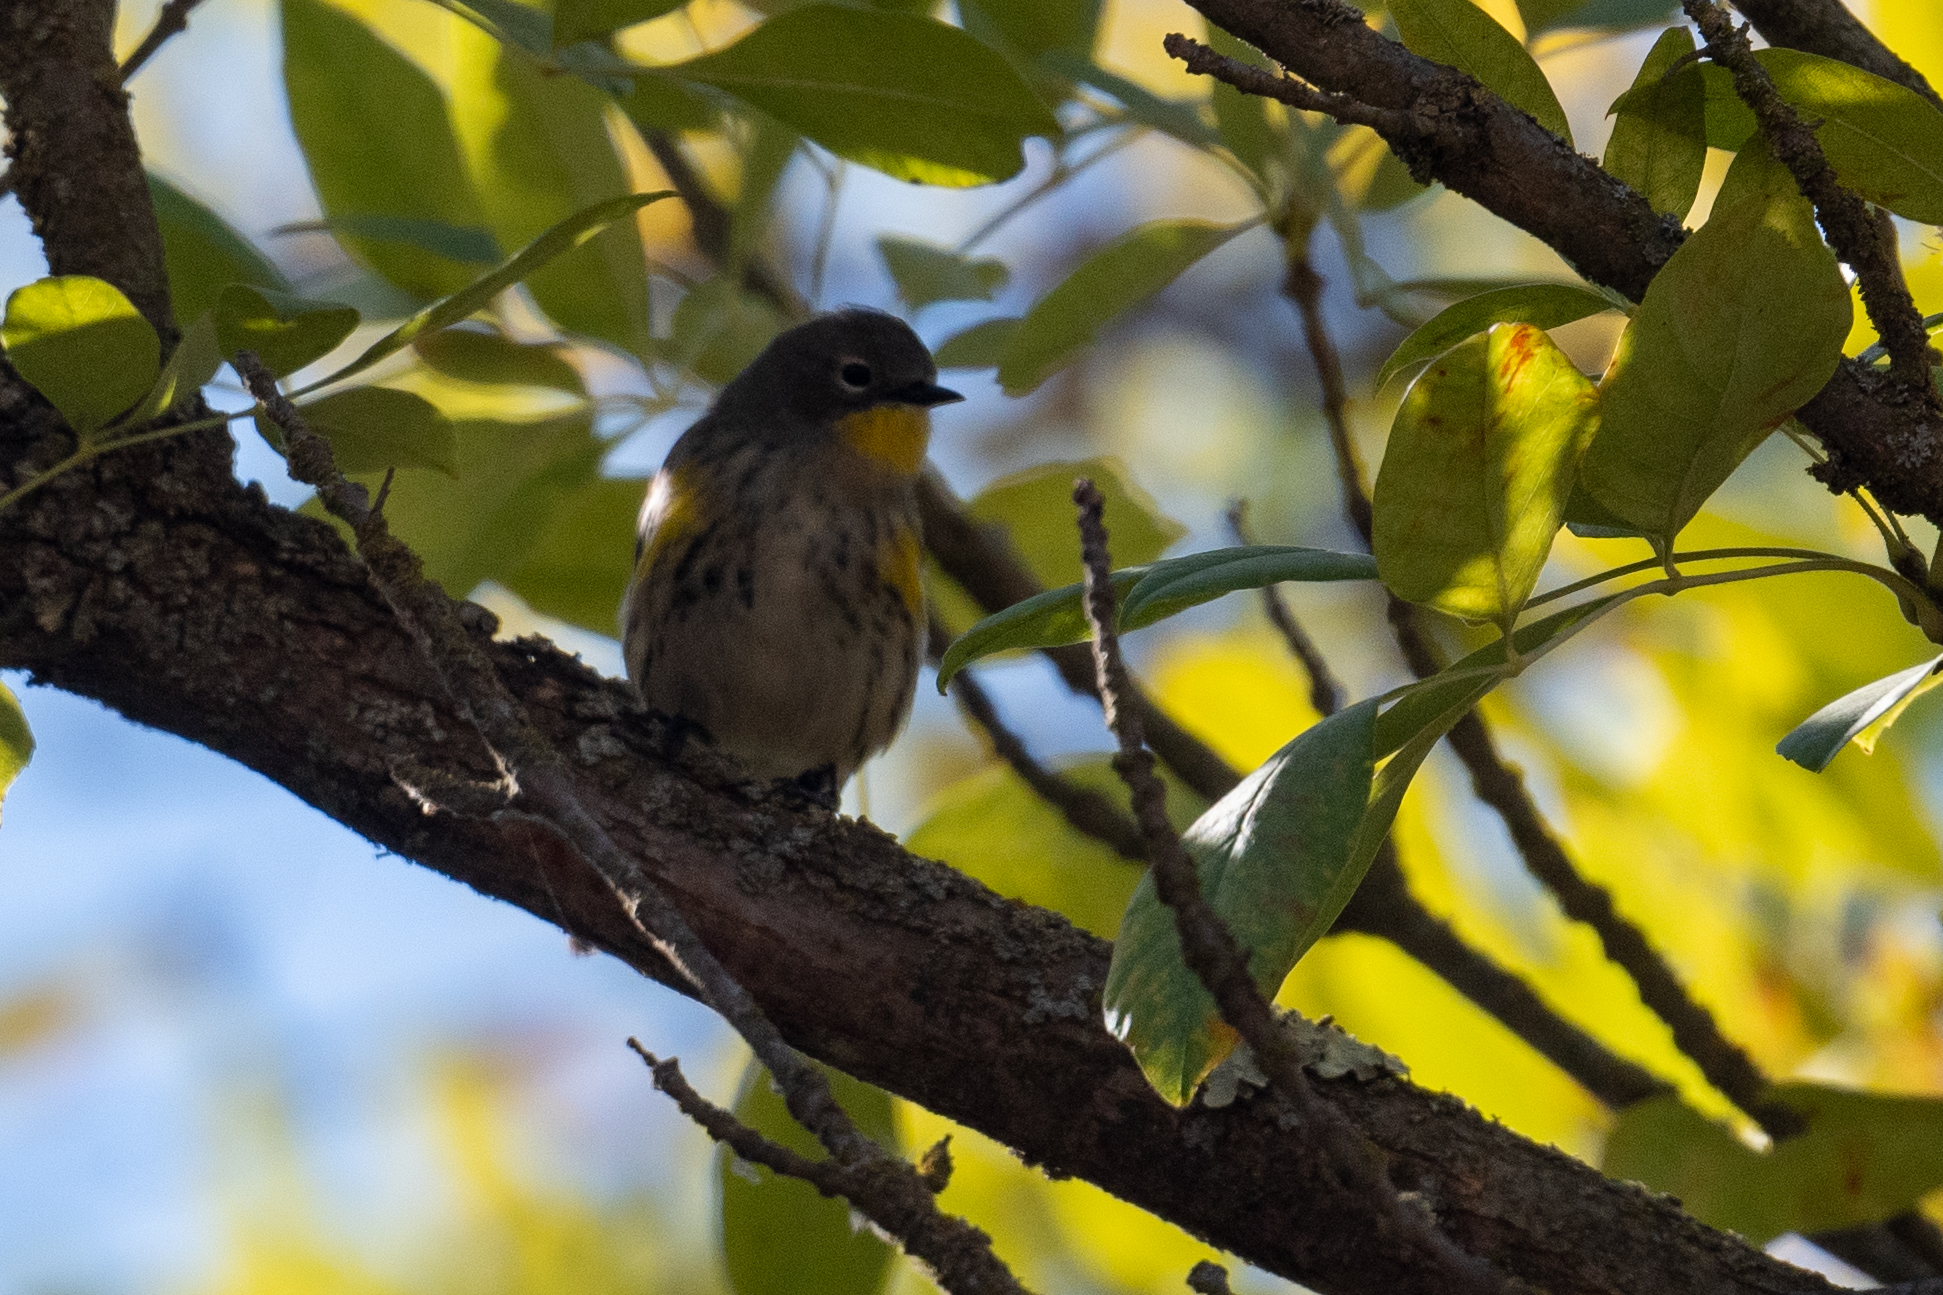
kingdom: Animalia
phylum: Chordata
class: Aves
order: Passeriformes
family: Parulidae
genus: Setophaga
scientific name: Setophaga coronata
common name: Myrtle warbler
